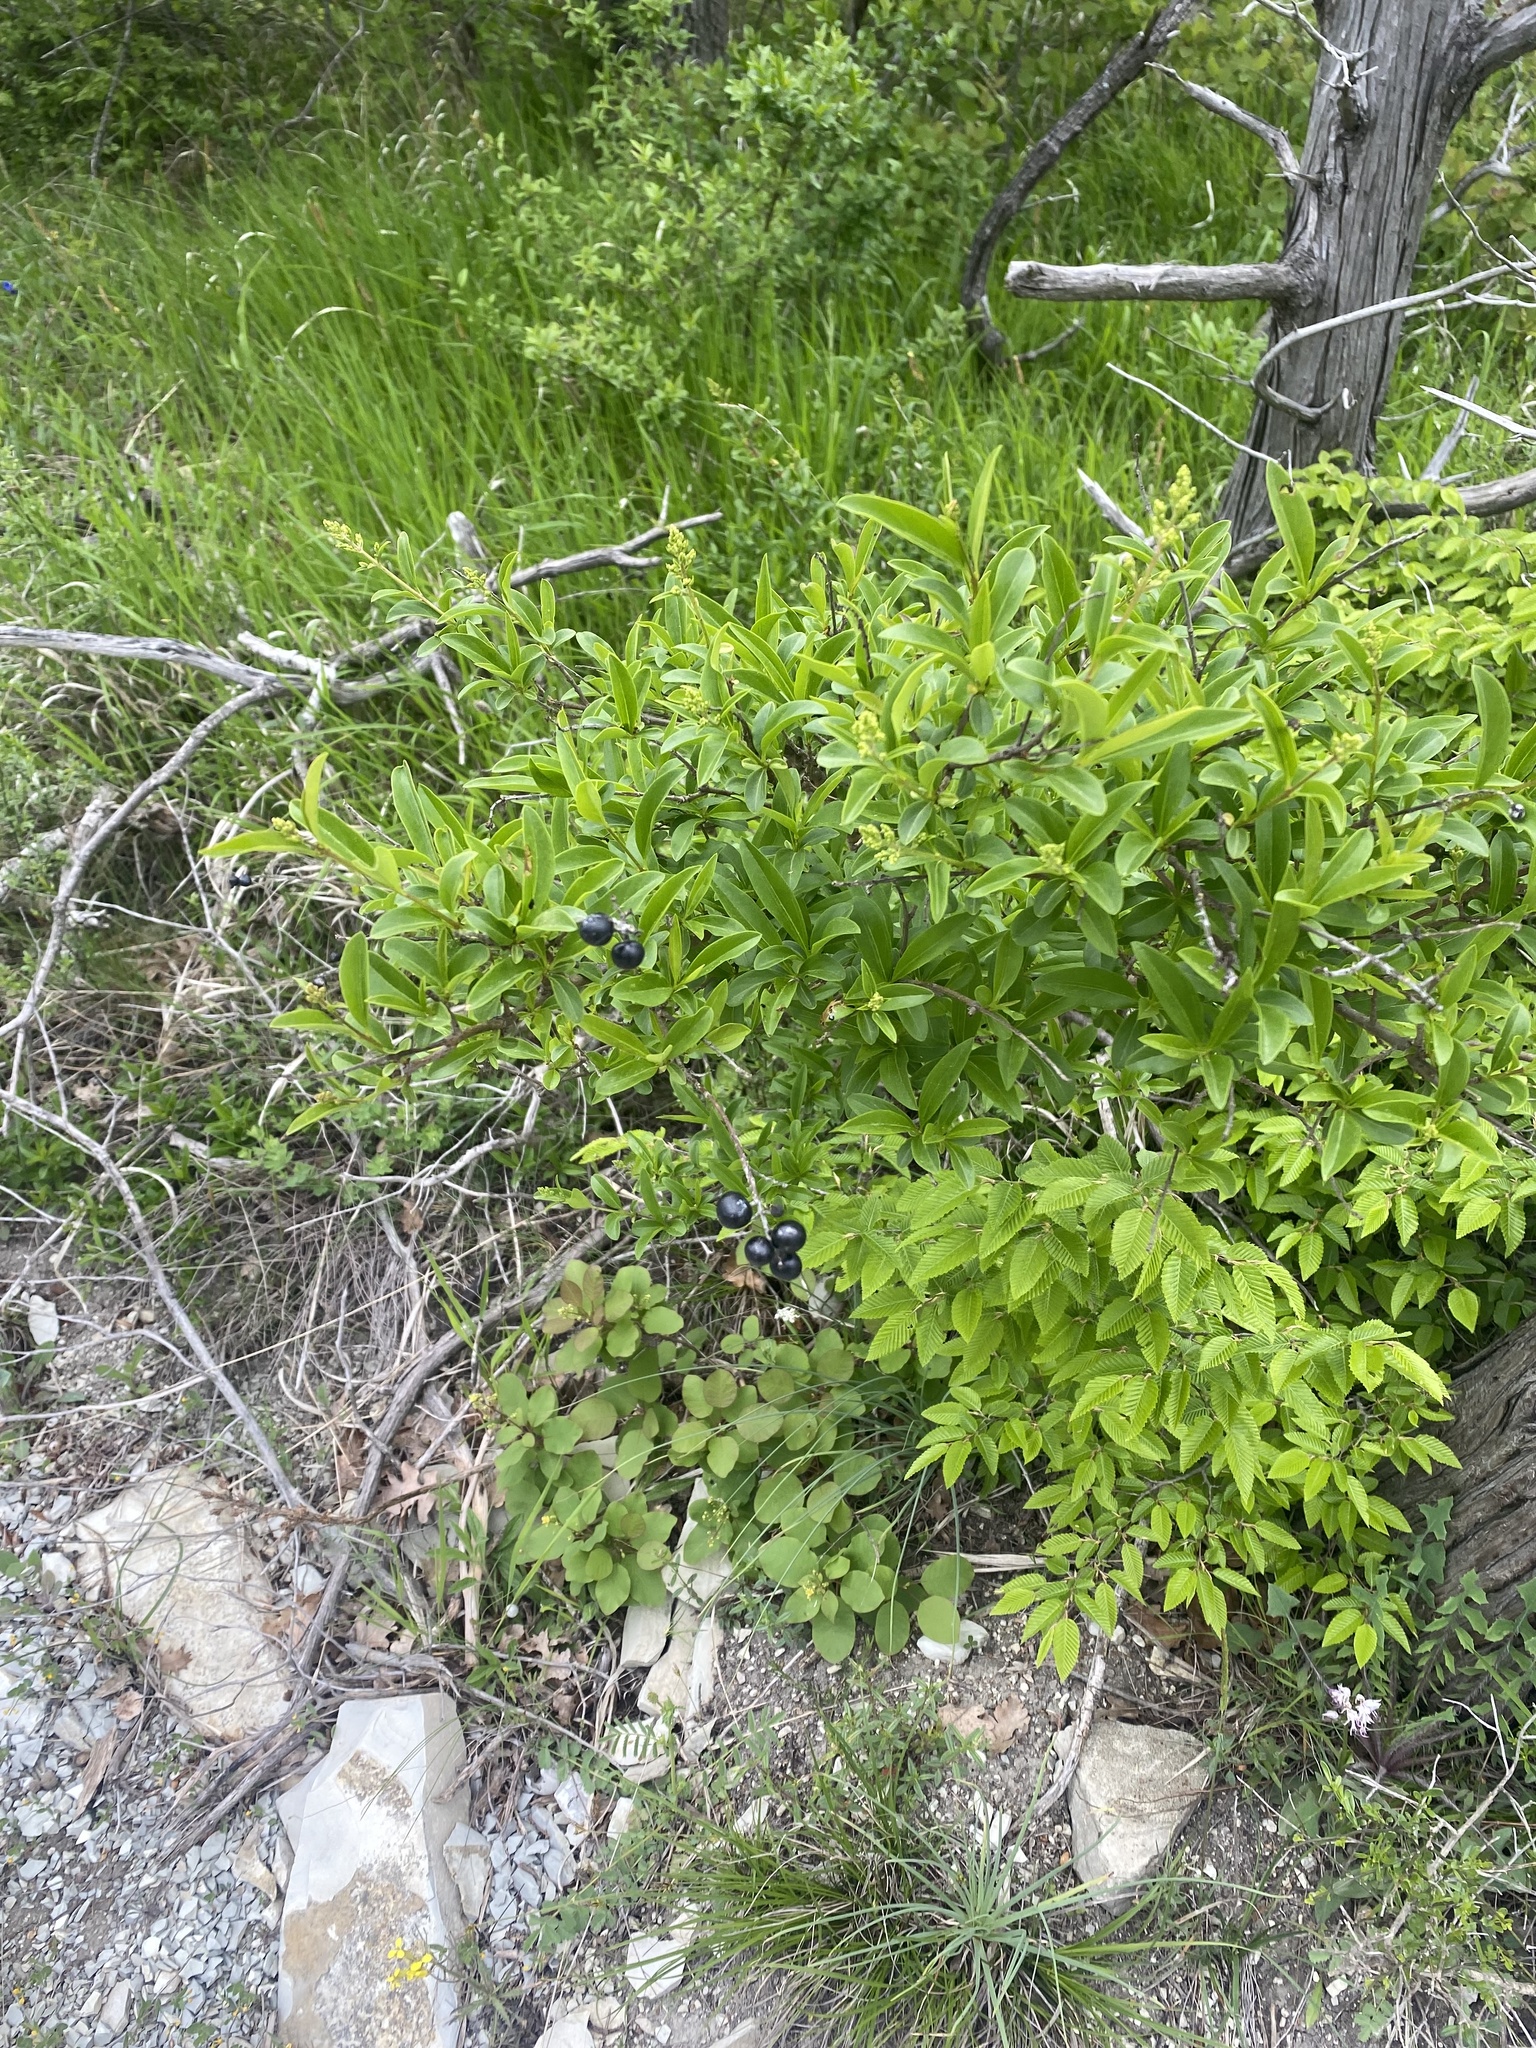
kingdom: Plantae
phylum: Tracheophyta
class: Magnoliopsida
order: Lamiales
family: Oleaceae
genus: Ligustrum
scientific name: Ligustrum vulgare
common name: Wild privet
